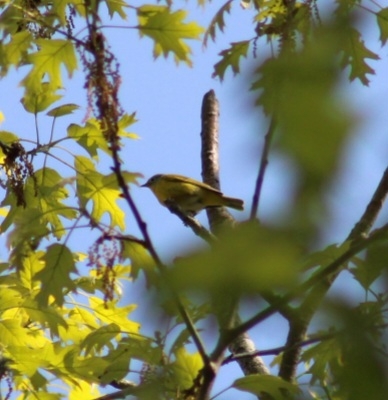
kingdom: Animalia
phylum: Chordata
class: Aves
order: Passeriformes
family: Parulidae
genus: Leiothlypis
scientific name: Leiothlypis ruficapilla
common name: Nashville warbler
